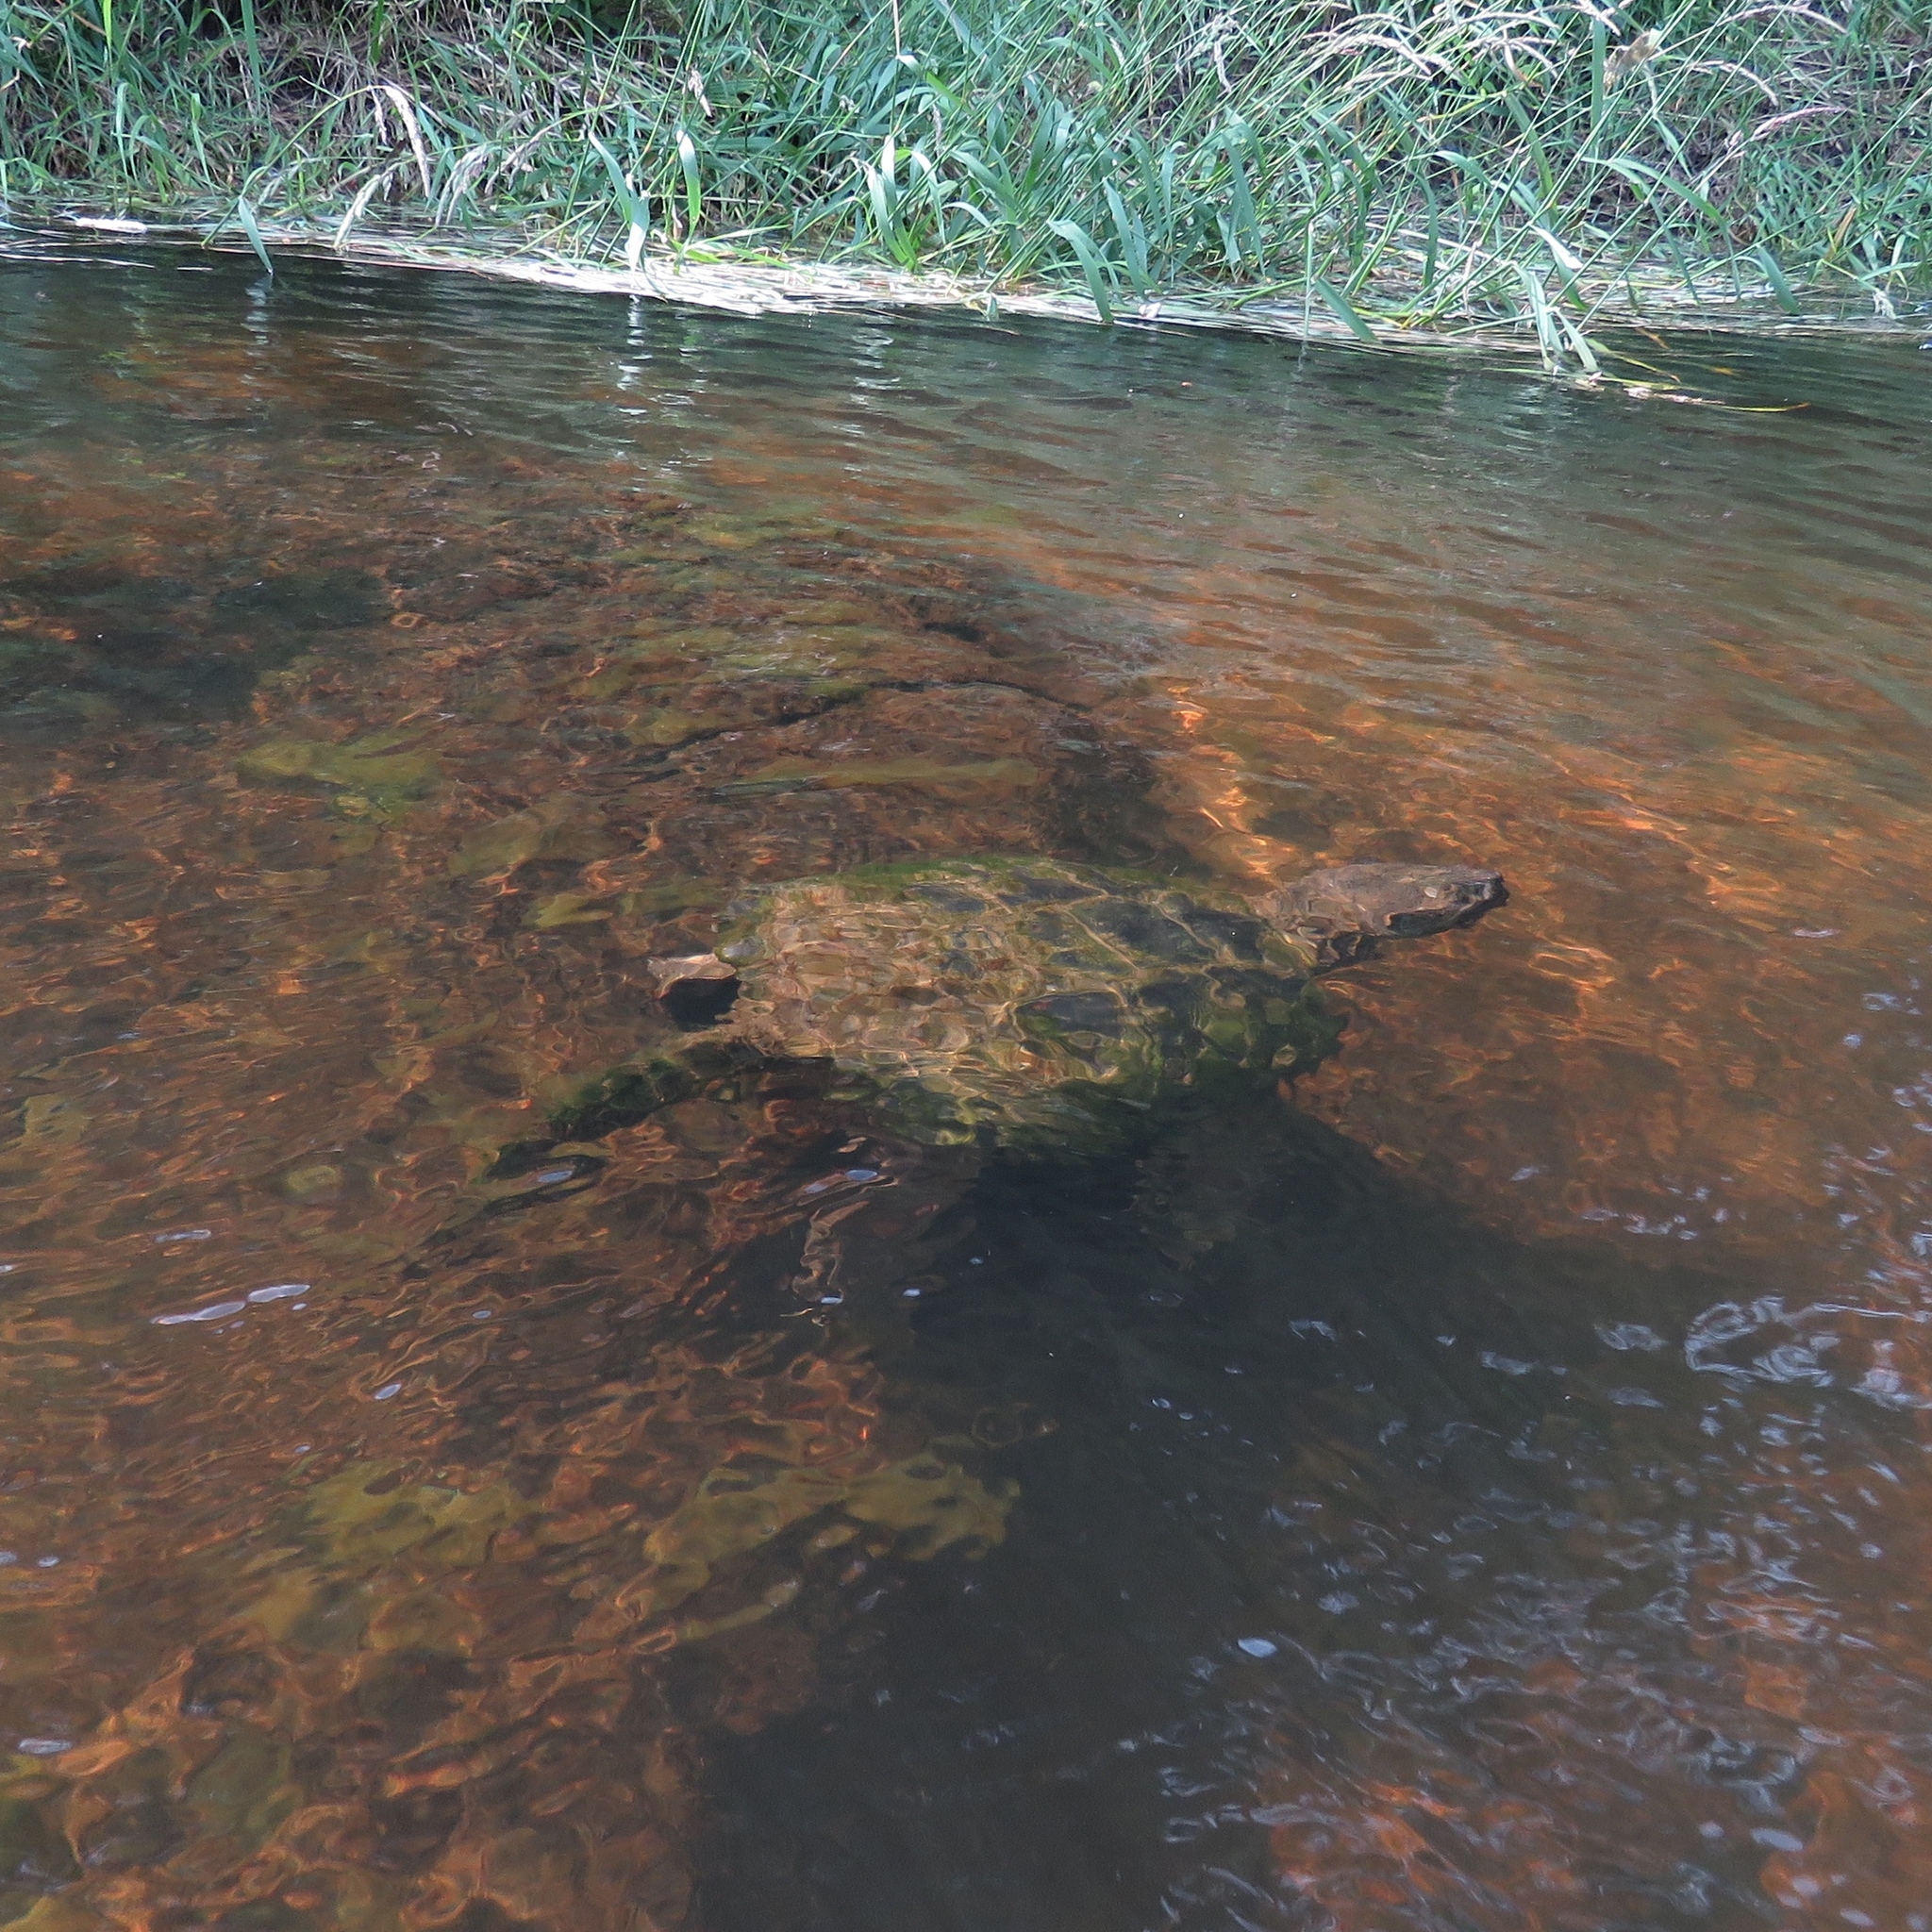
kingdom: Animalia
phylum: Chordata
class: Testudines
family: Chelydridae
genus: Chelydra
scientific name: Chelydra serpentina
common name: Common snapping turtle
